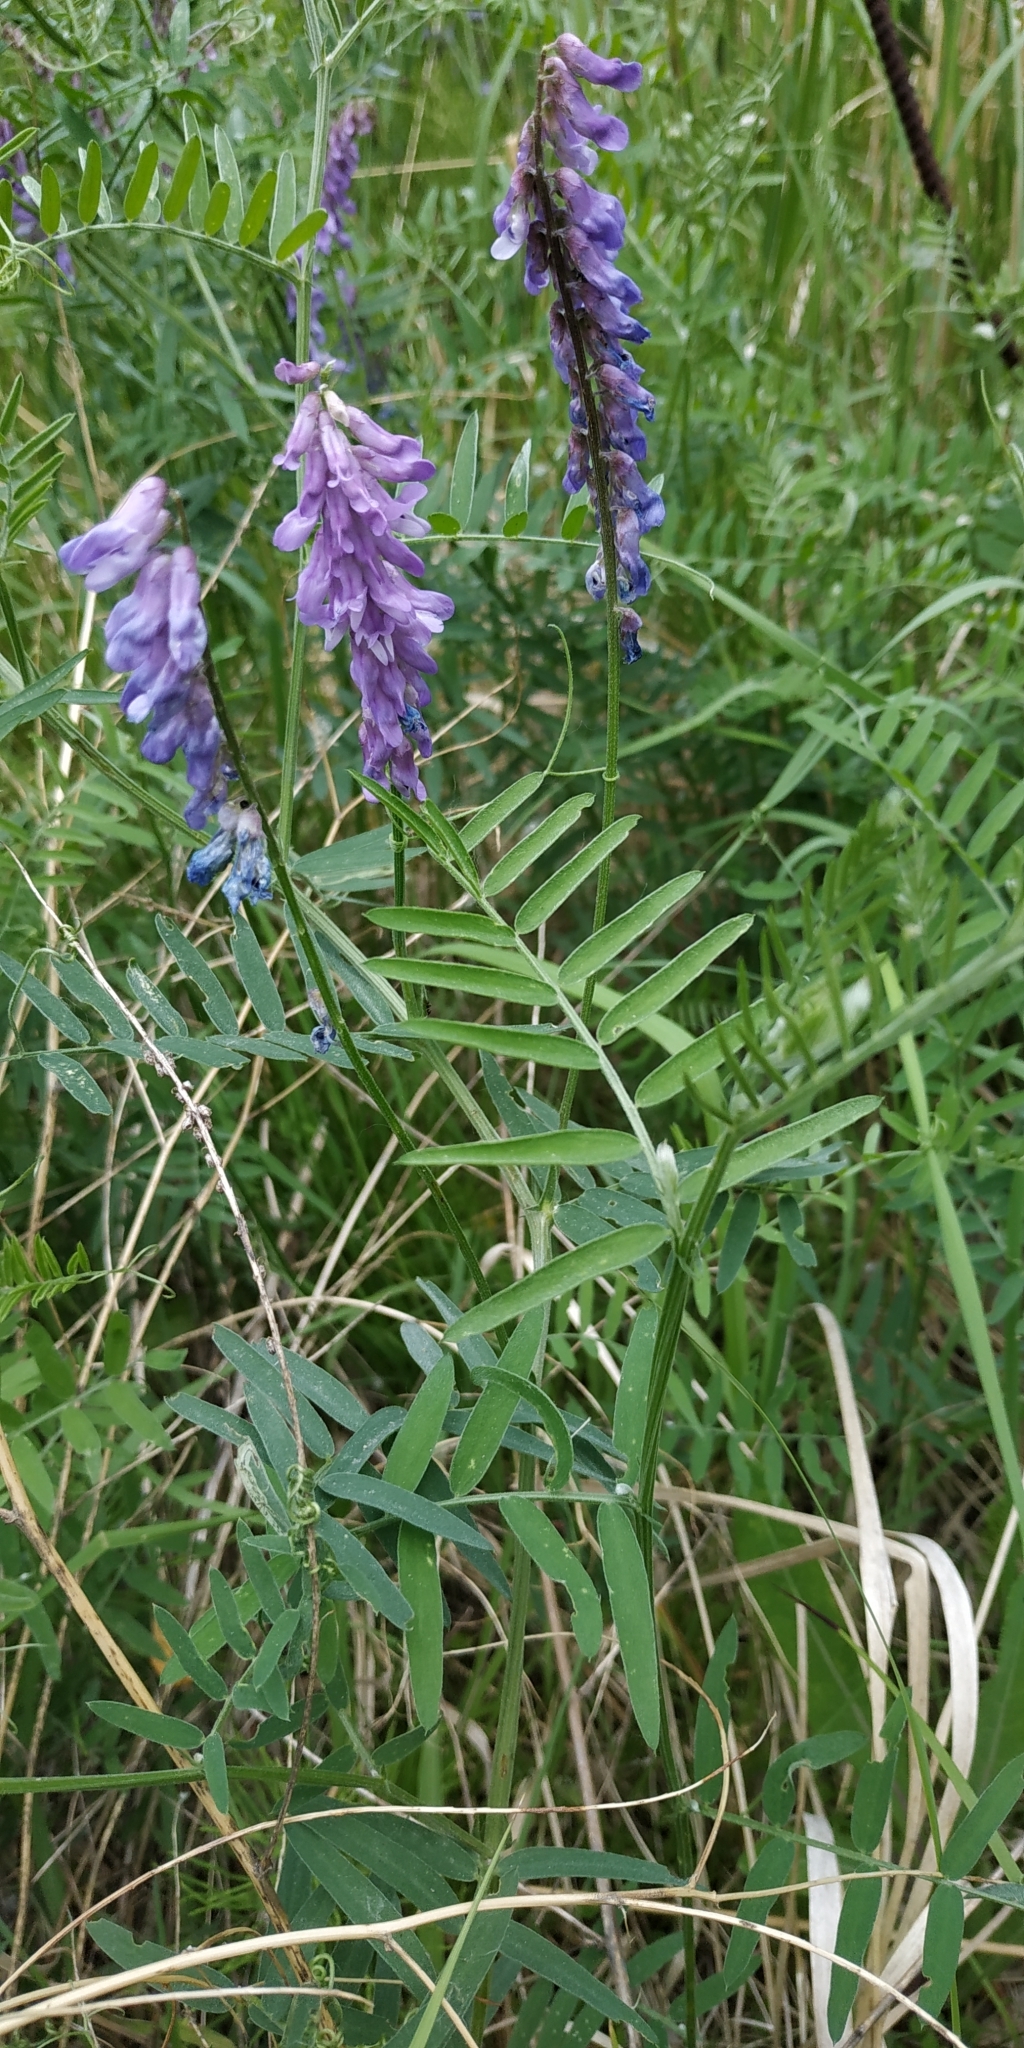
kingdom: Plantae
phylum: Tracheophyta
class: Magnoliopsida
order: Fabales
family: Fabaceae
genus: Vicia
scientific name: Vicia cracca
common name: Bird vetch
